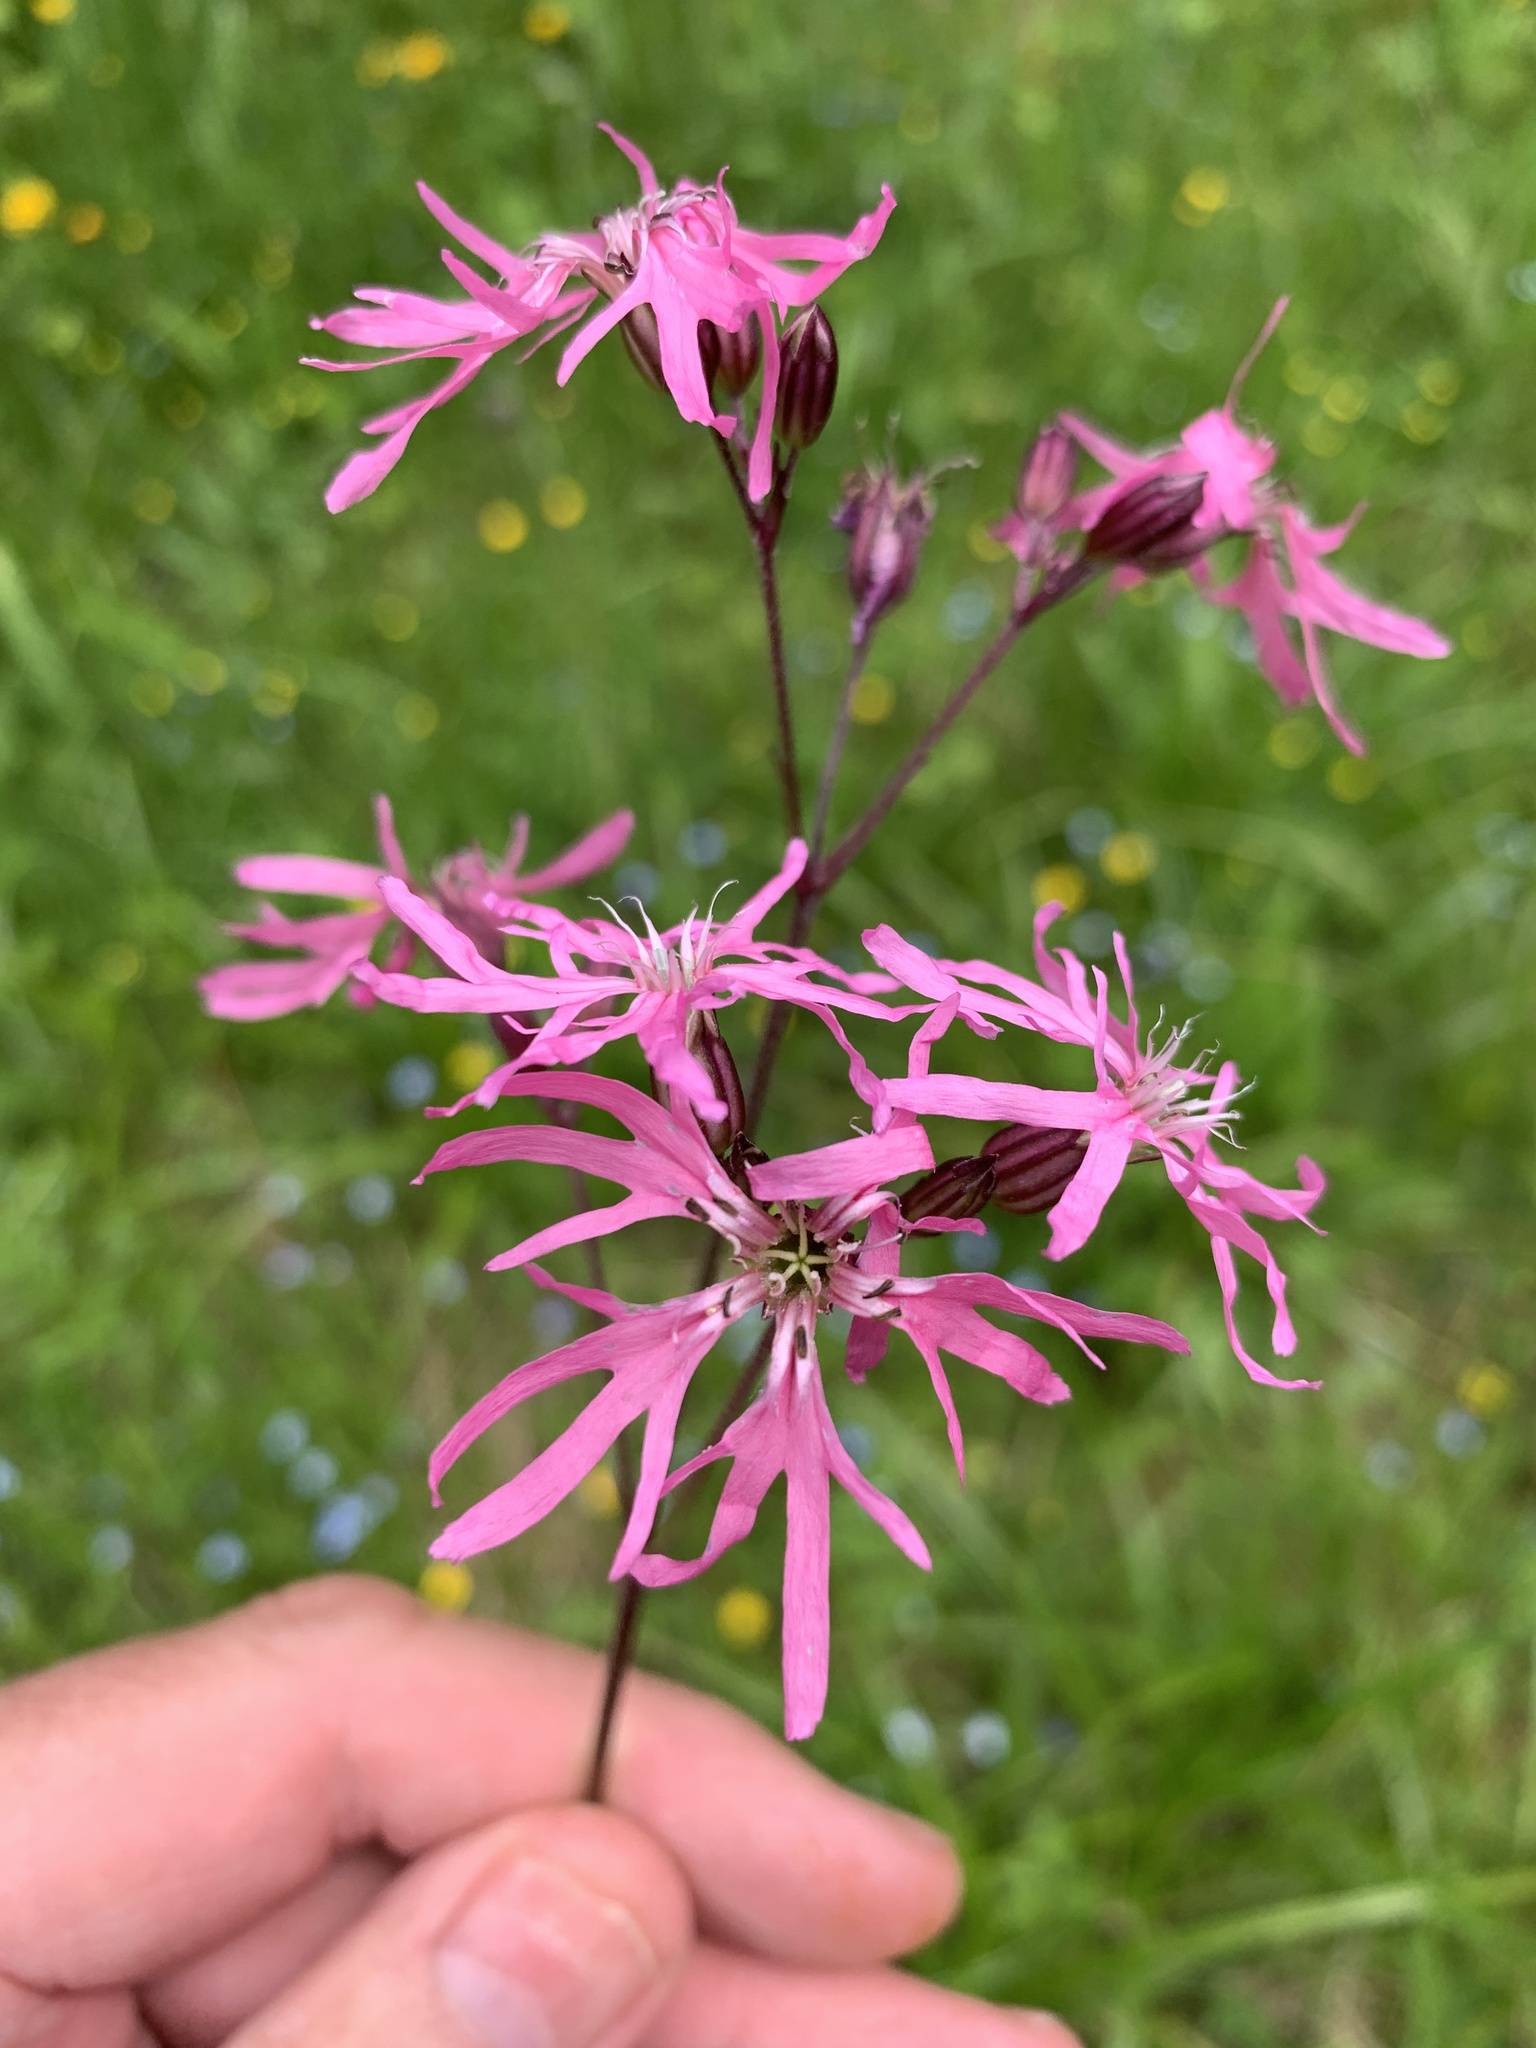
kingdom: Plantae
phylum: Tracheophyta
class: Magnoliopsida
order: Caryophyllales
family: Caryophyllaceae
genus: Silene
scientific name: Silene flos-cuculi
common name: Ragged-robin
